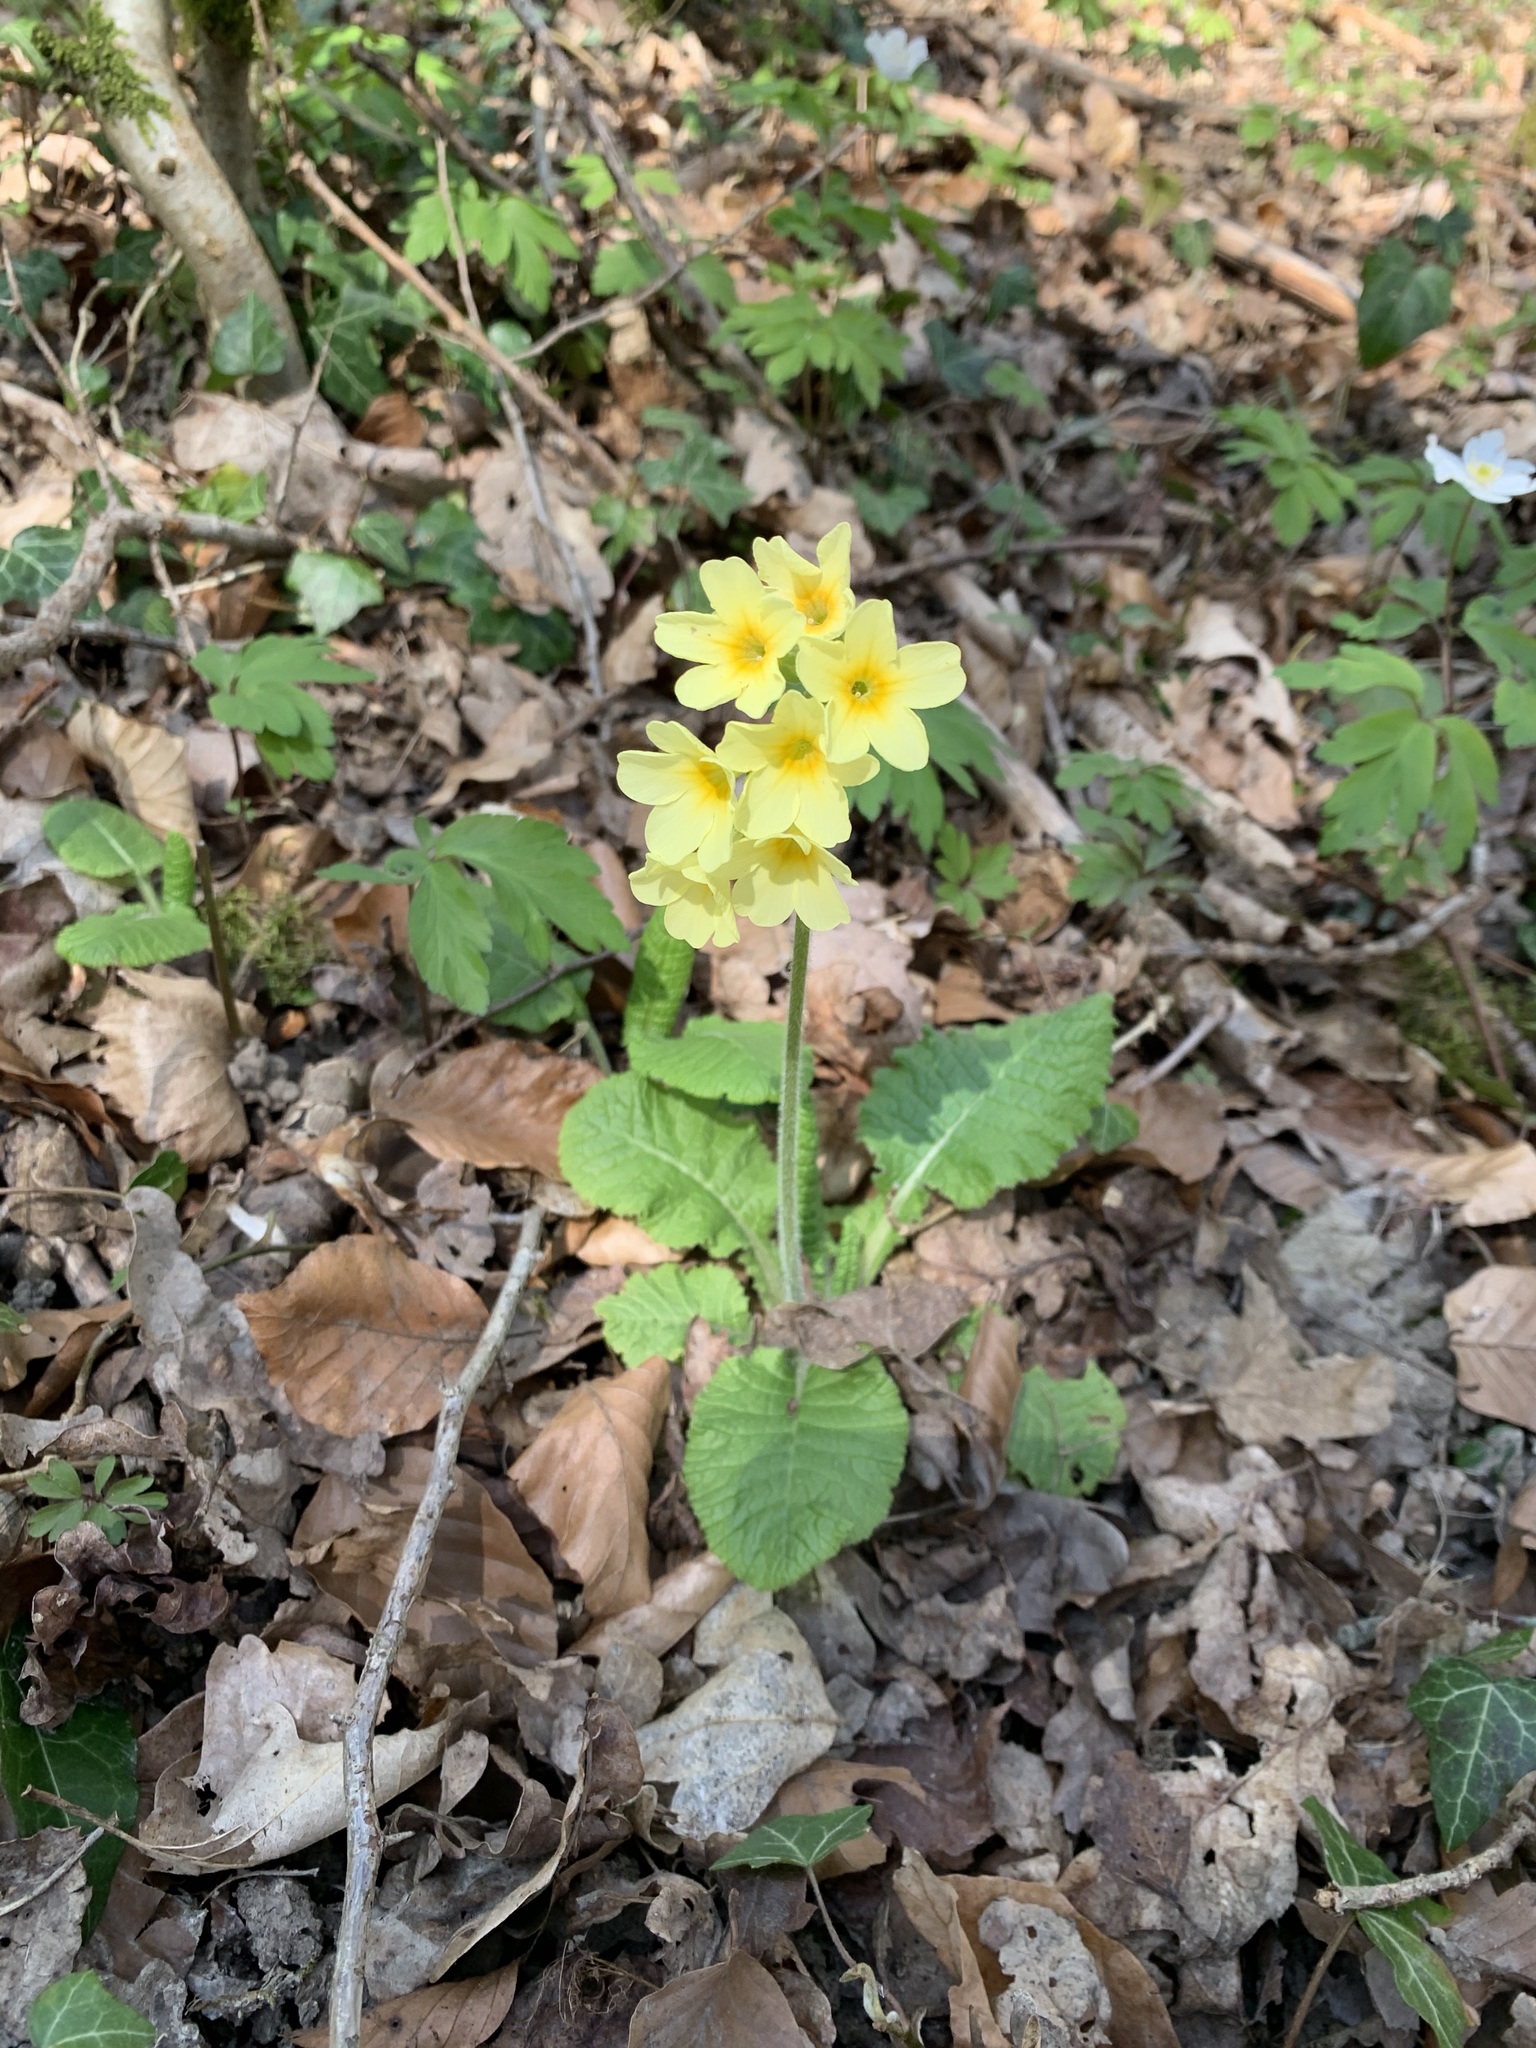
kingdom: Plantae
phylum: Tracheophyta
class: Magnoliopsida
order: Ericales
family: Primulaceae
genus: Primula
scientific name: Primula elatior
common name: Oxlip
